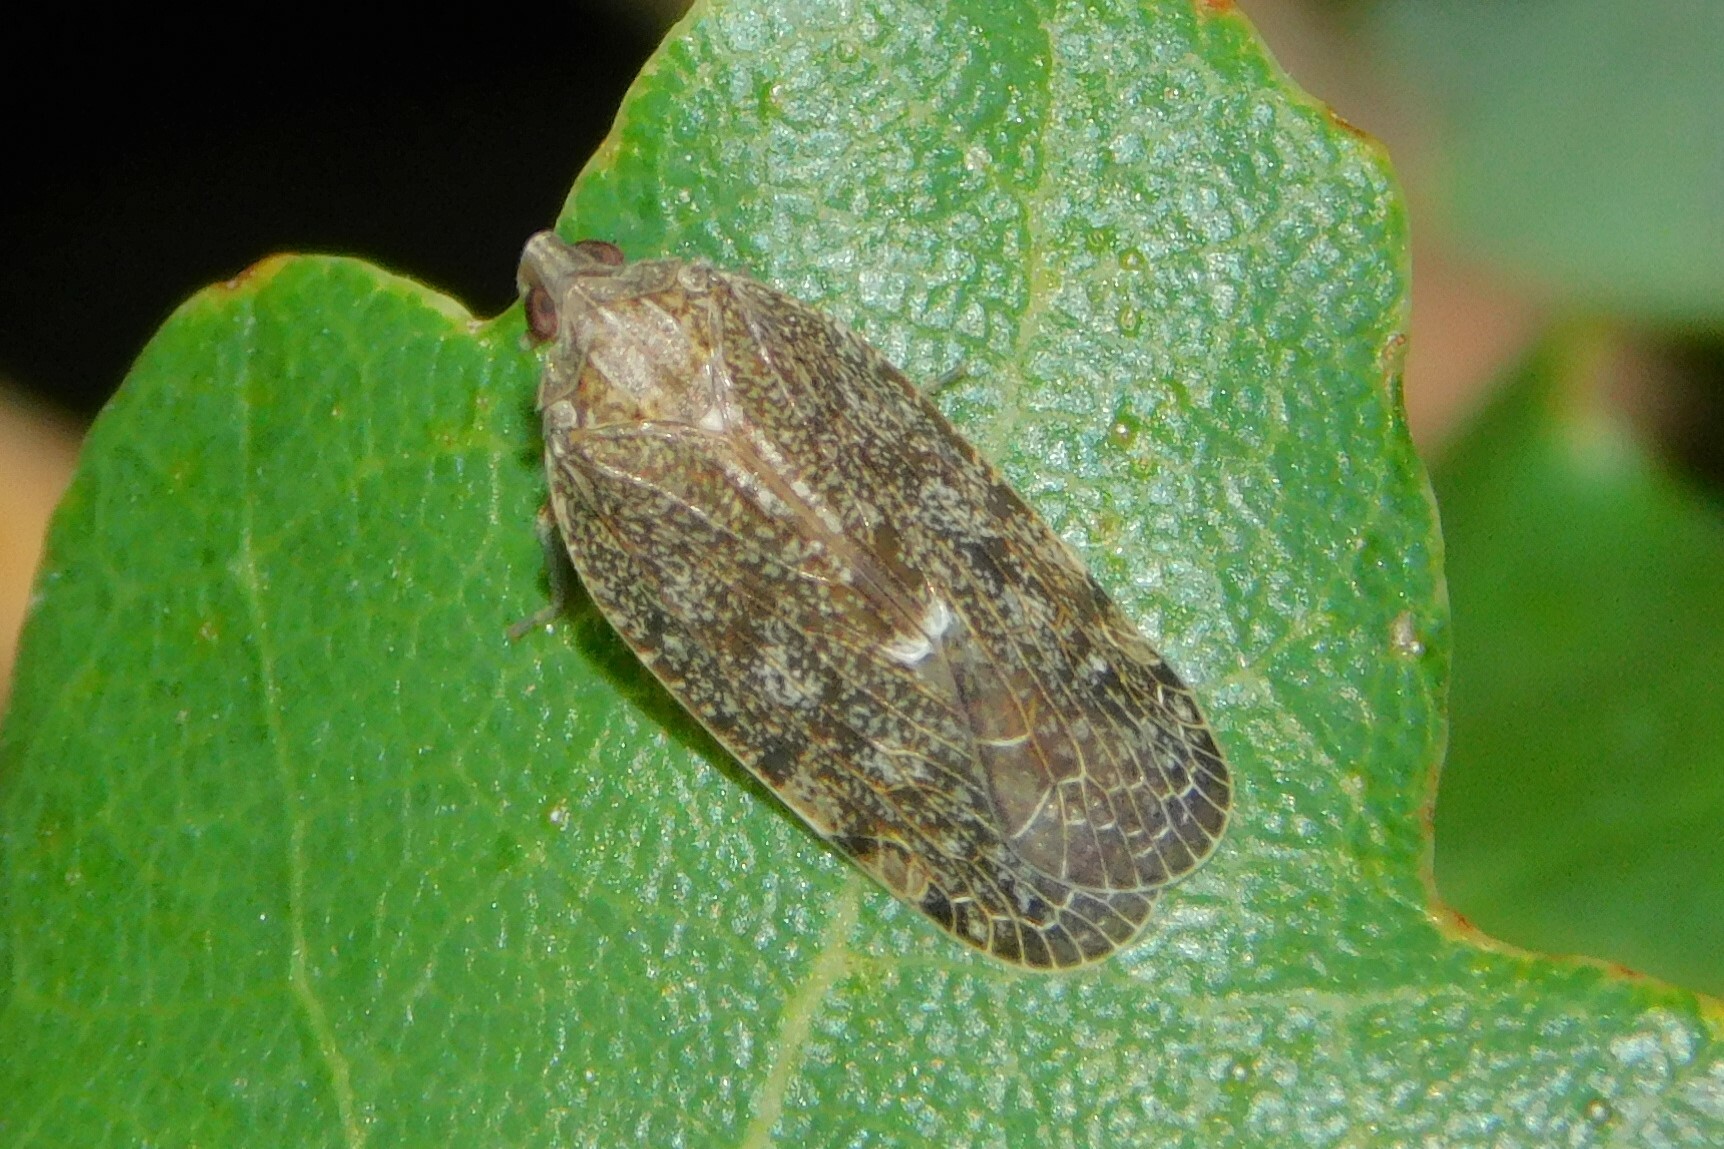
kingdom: Animalia
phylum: Arthropoda
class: Insecta
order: Hemiptera
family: Achilidae
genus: Cixidia
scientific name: Cixidia pilatoi
